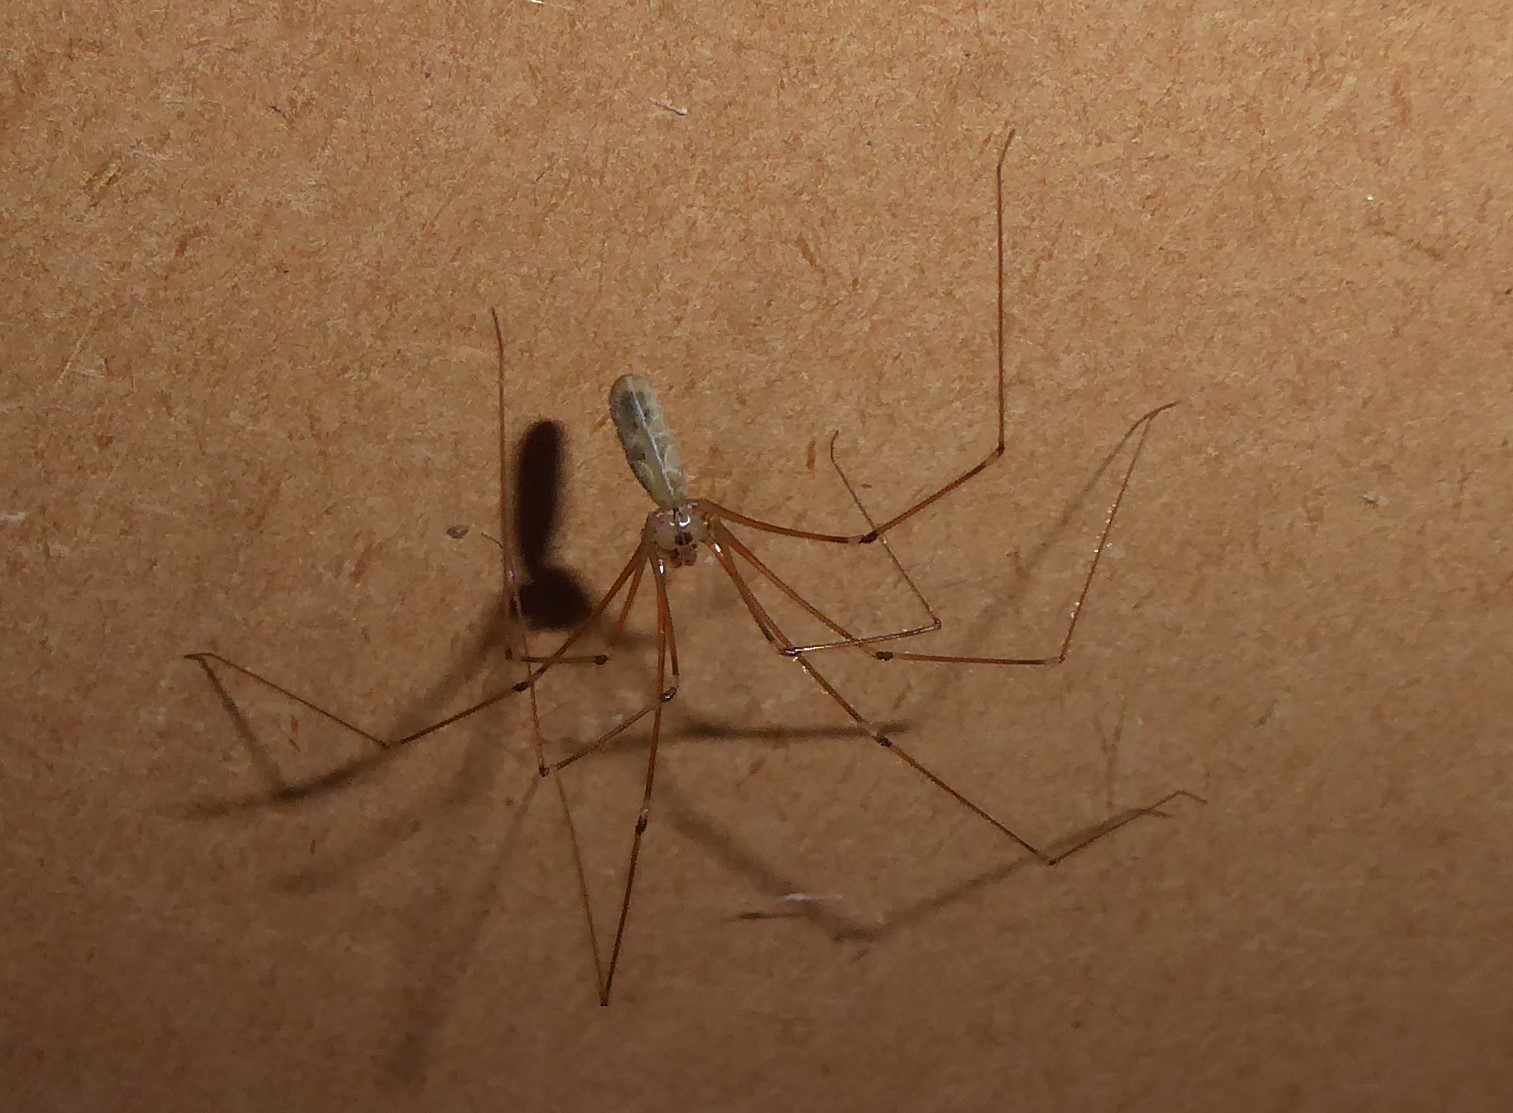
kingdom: Animalia
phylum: Arthropoda
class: Arachnida
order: Araneae
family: Pholcidae
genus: Pholcus
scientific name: Pholcus phalangioides
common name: Longbodied cellar spider
